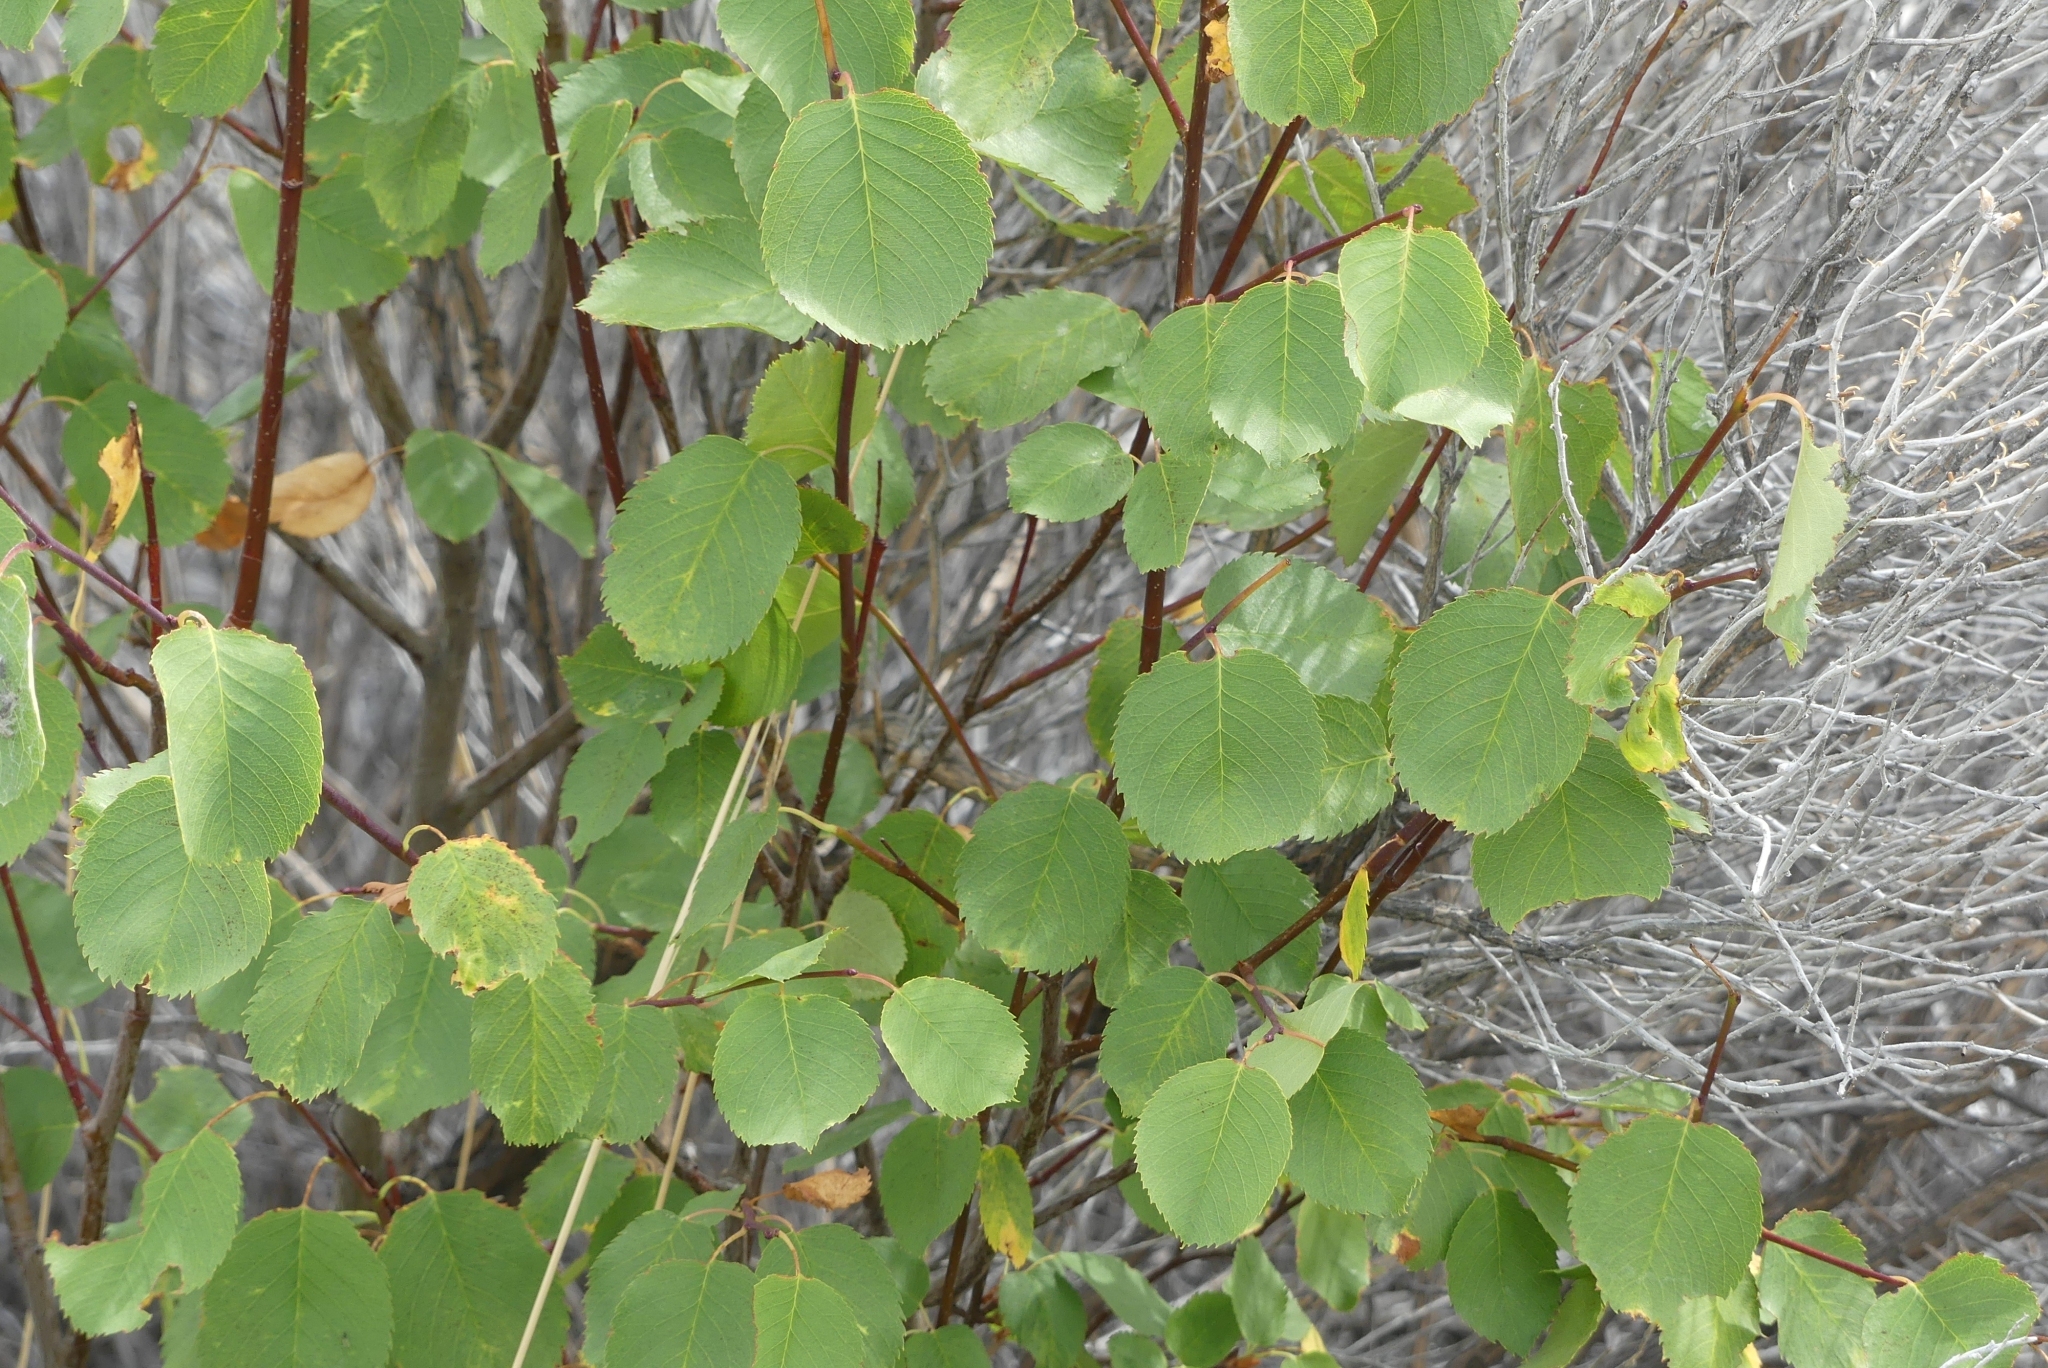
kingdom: Plantae
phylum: Tracheophyta
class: Magnoliopsida
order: Rosales
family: Rosaceae
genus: Amelanchier
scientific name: Amelanchier alnifolia
